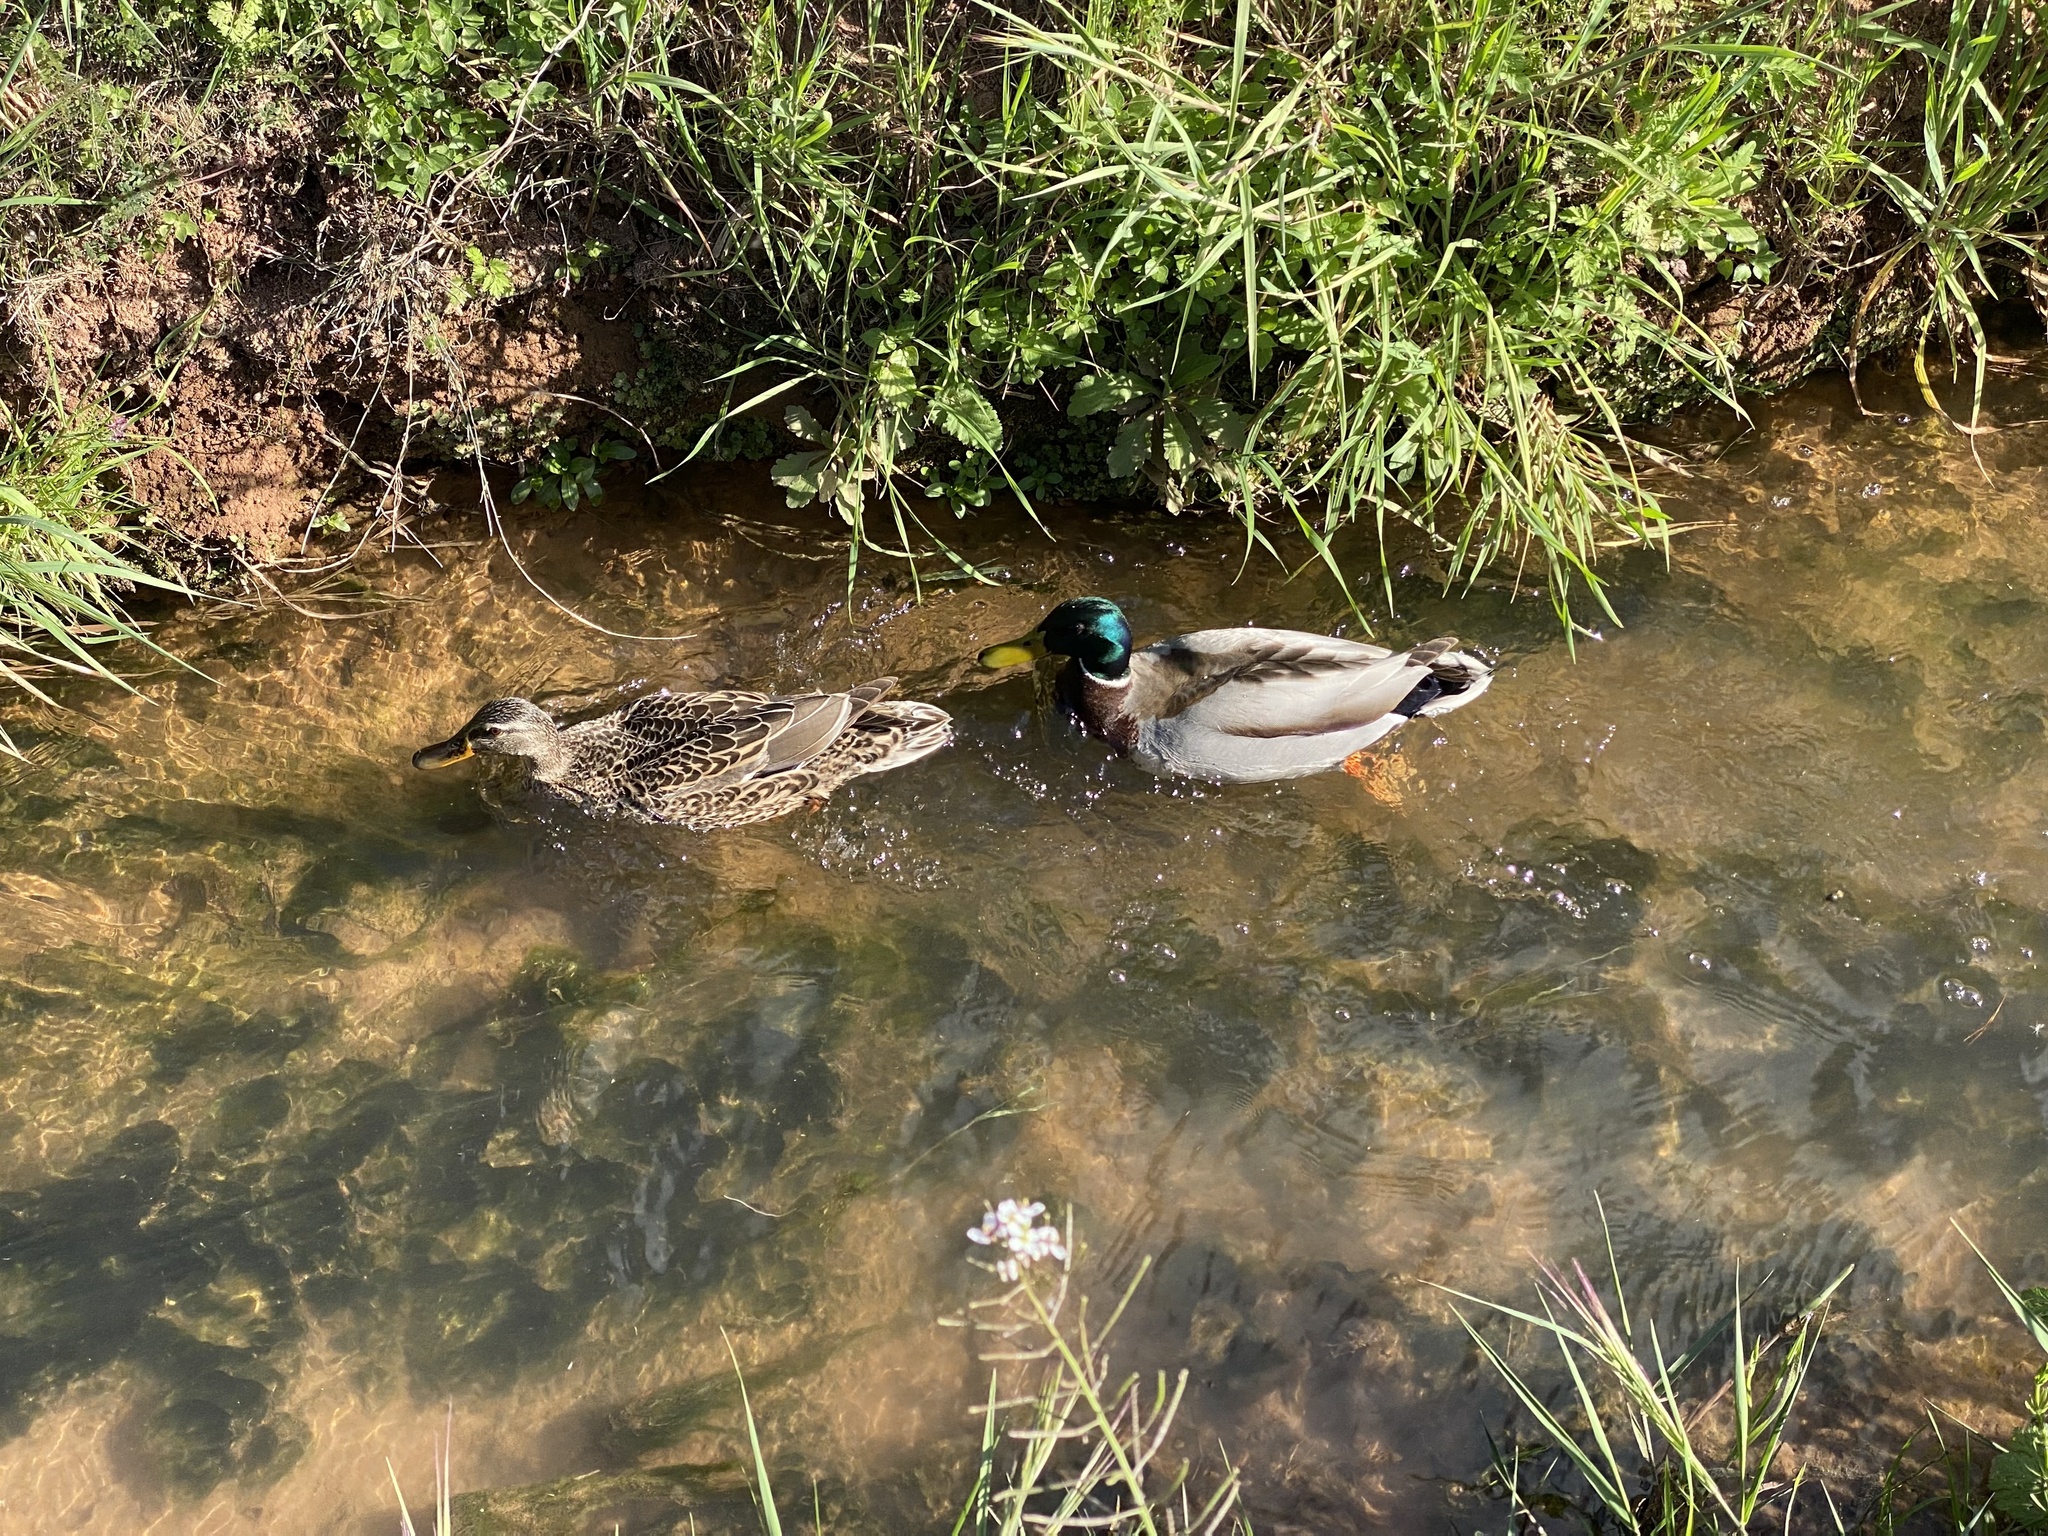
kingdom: Animalia
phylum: Chordata
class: Aves
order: Anseriformes
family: Anatidae
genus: Anas
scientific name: Anas platyrhynchos
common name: Mallard
